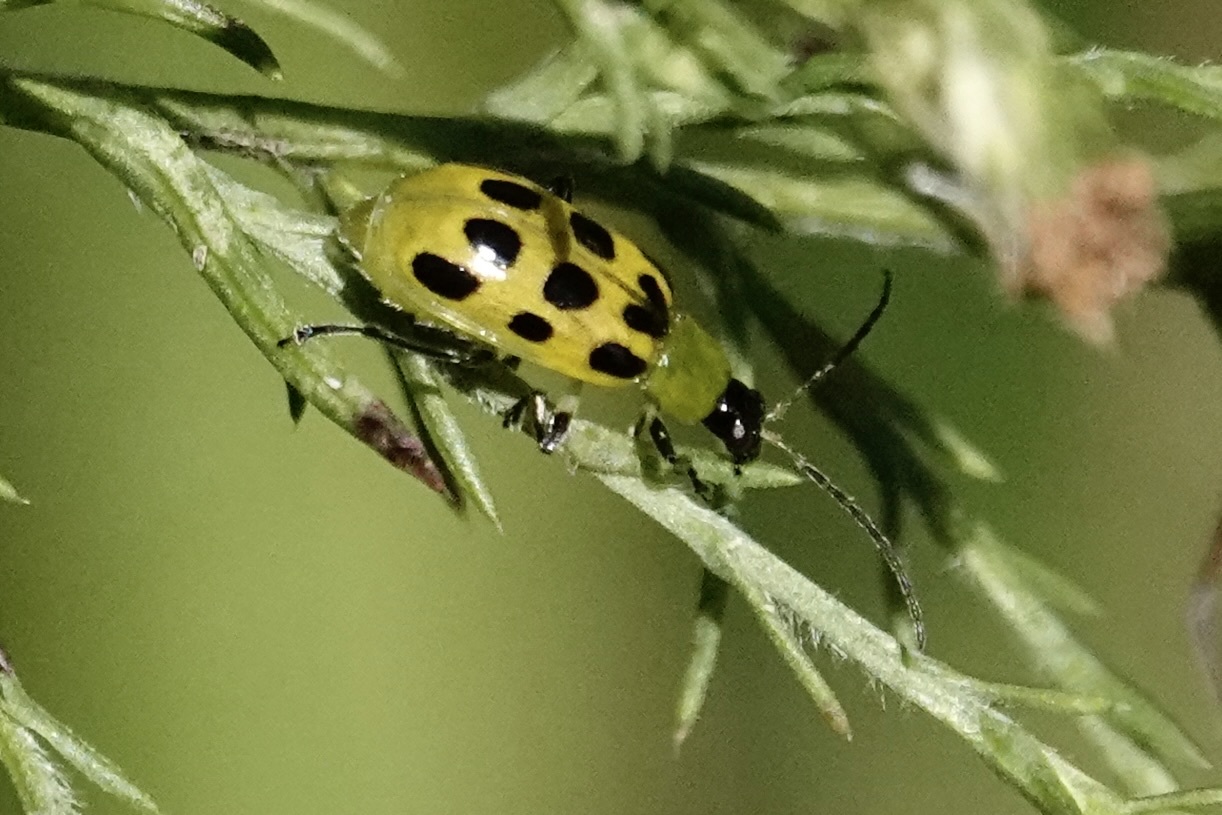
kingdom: Animalia
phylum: Arthropoda
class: Insecta
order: Coleoptera
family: Chrysomelidae
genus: Diabrotica
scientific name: Diabrotica undecimpunctata
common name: Spotted cucumber beetle
